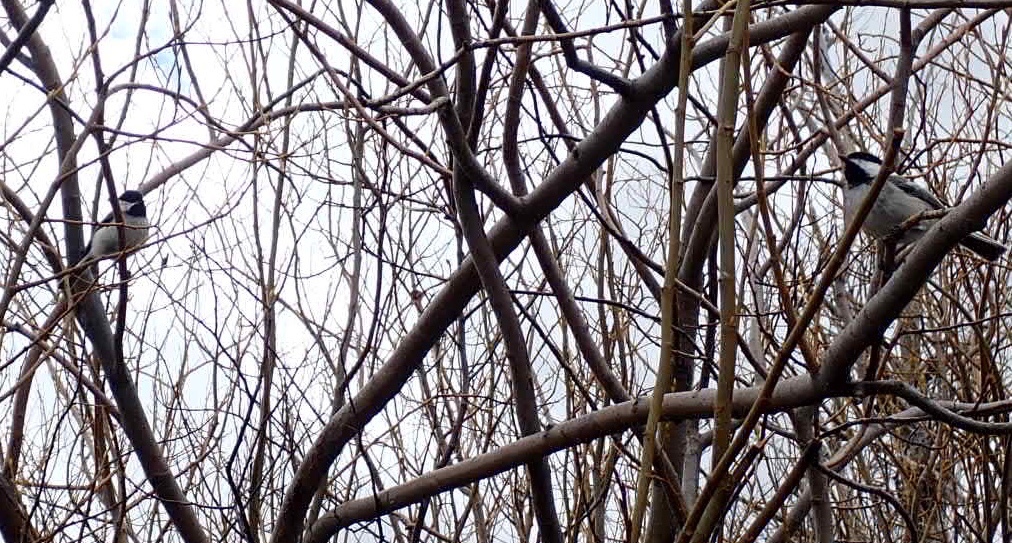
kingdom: Animalia
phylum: Chordata
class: Aves
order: Passeriformes
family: Paridae
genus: Poecile
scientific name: Poecile atricapillus
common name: Black-capped chickadee
